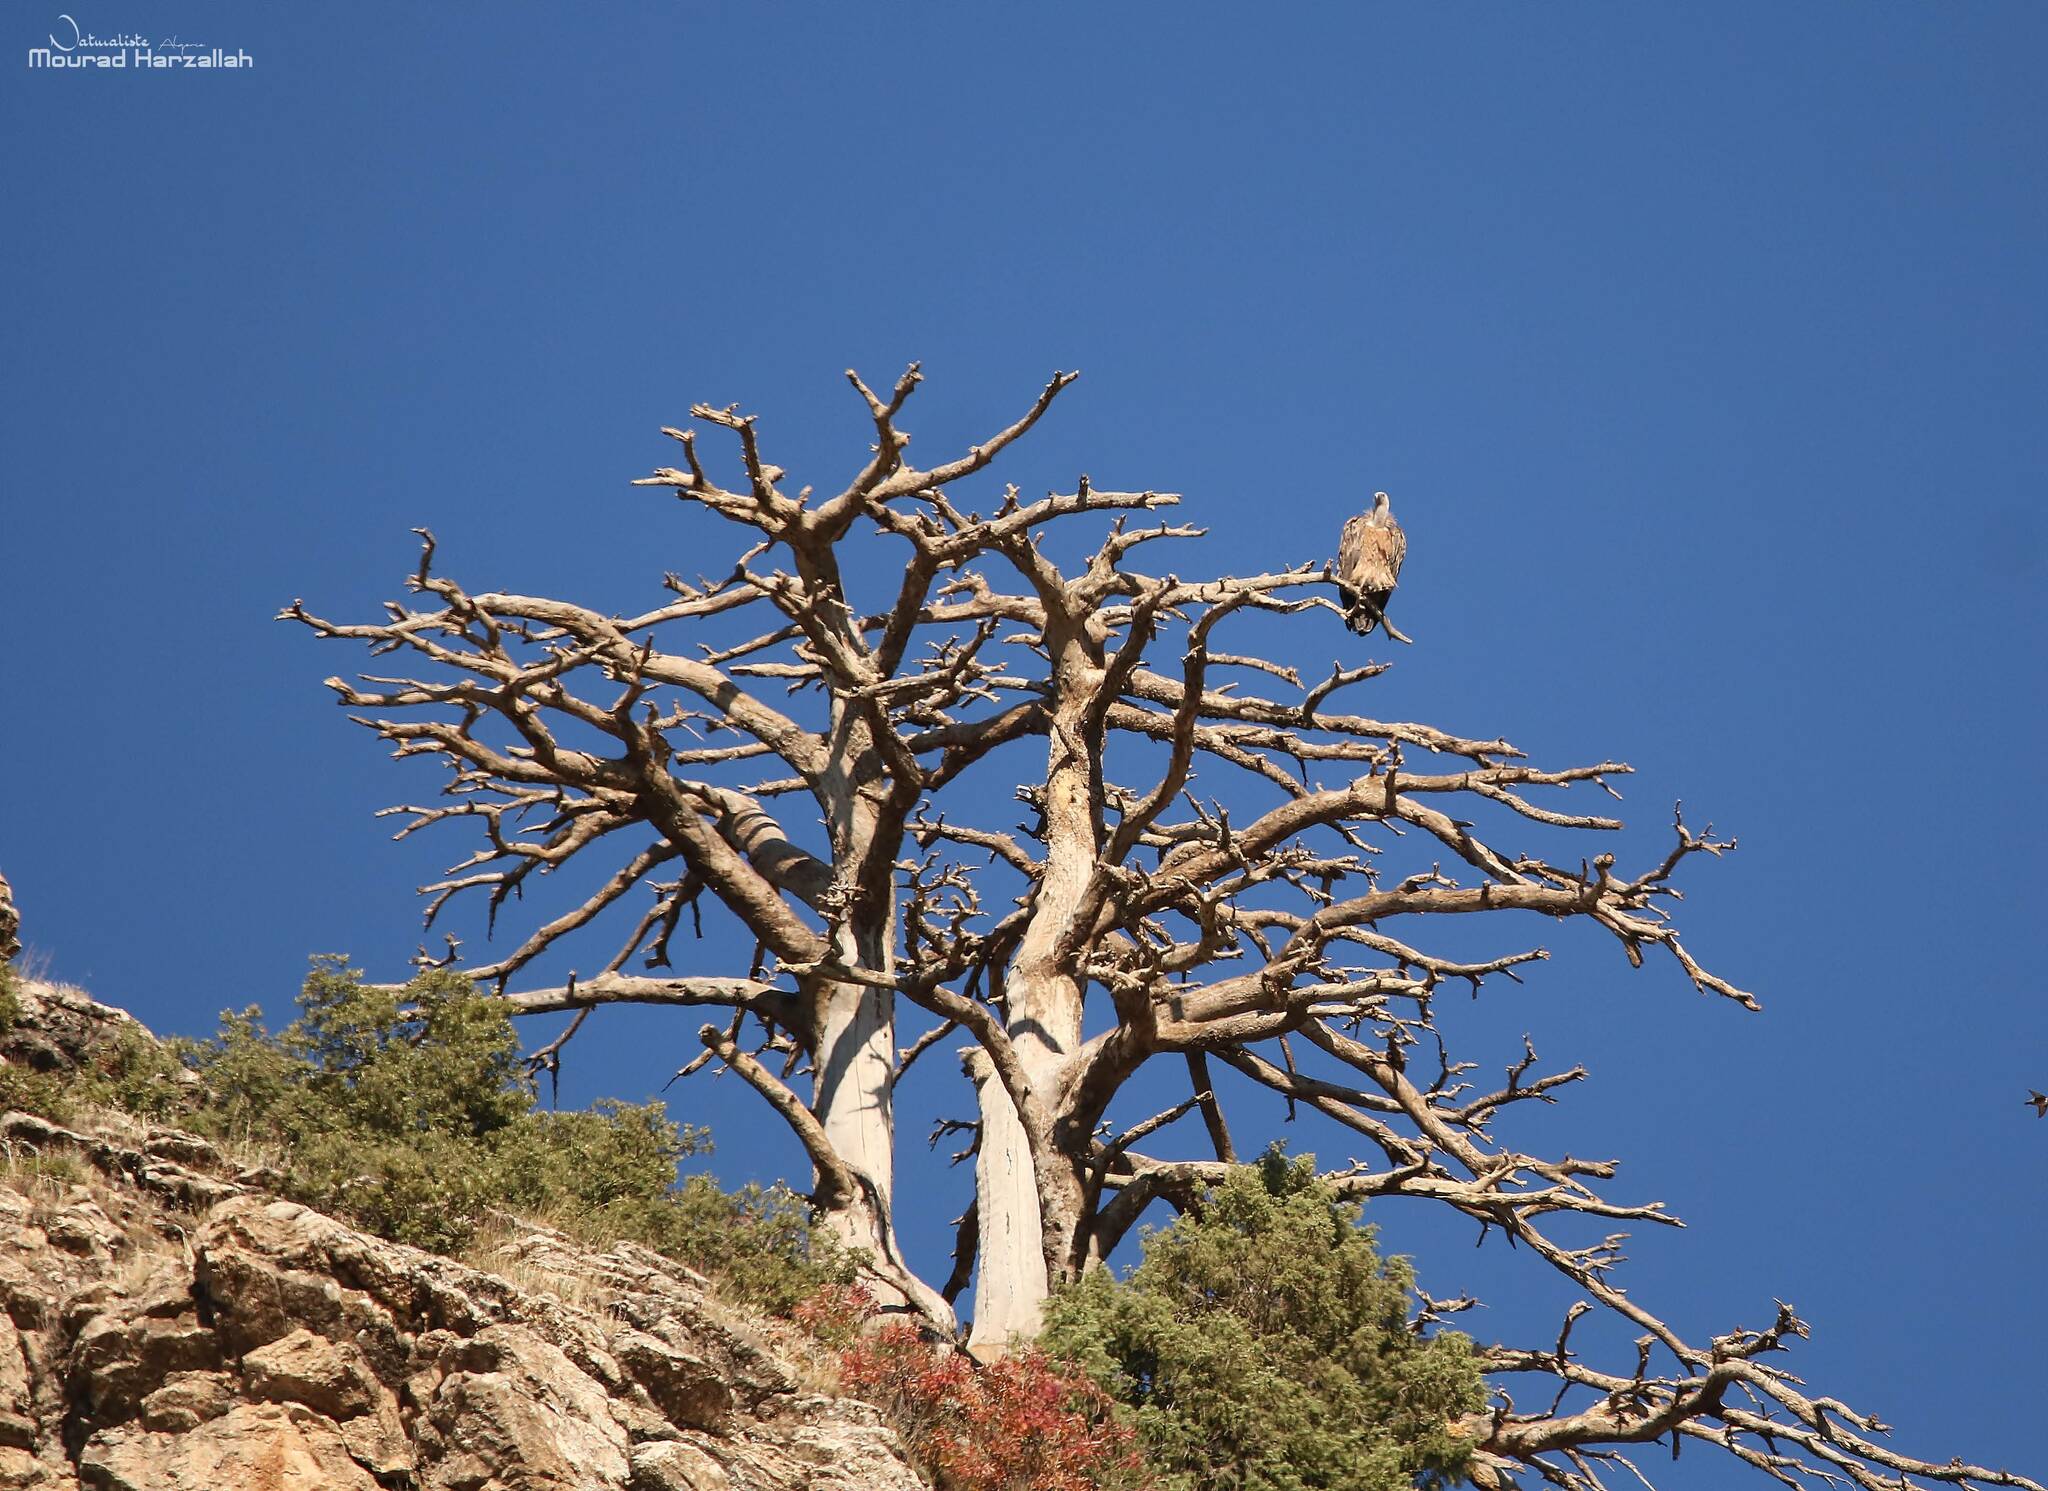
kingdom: Animalia
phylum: Chordata
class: Aves
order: Accipitriformes
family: Accipitridae
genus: Gyps
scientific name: Gyps fulvus
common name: Griffon vulture
